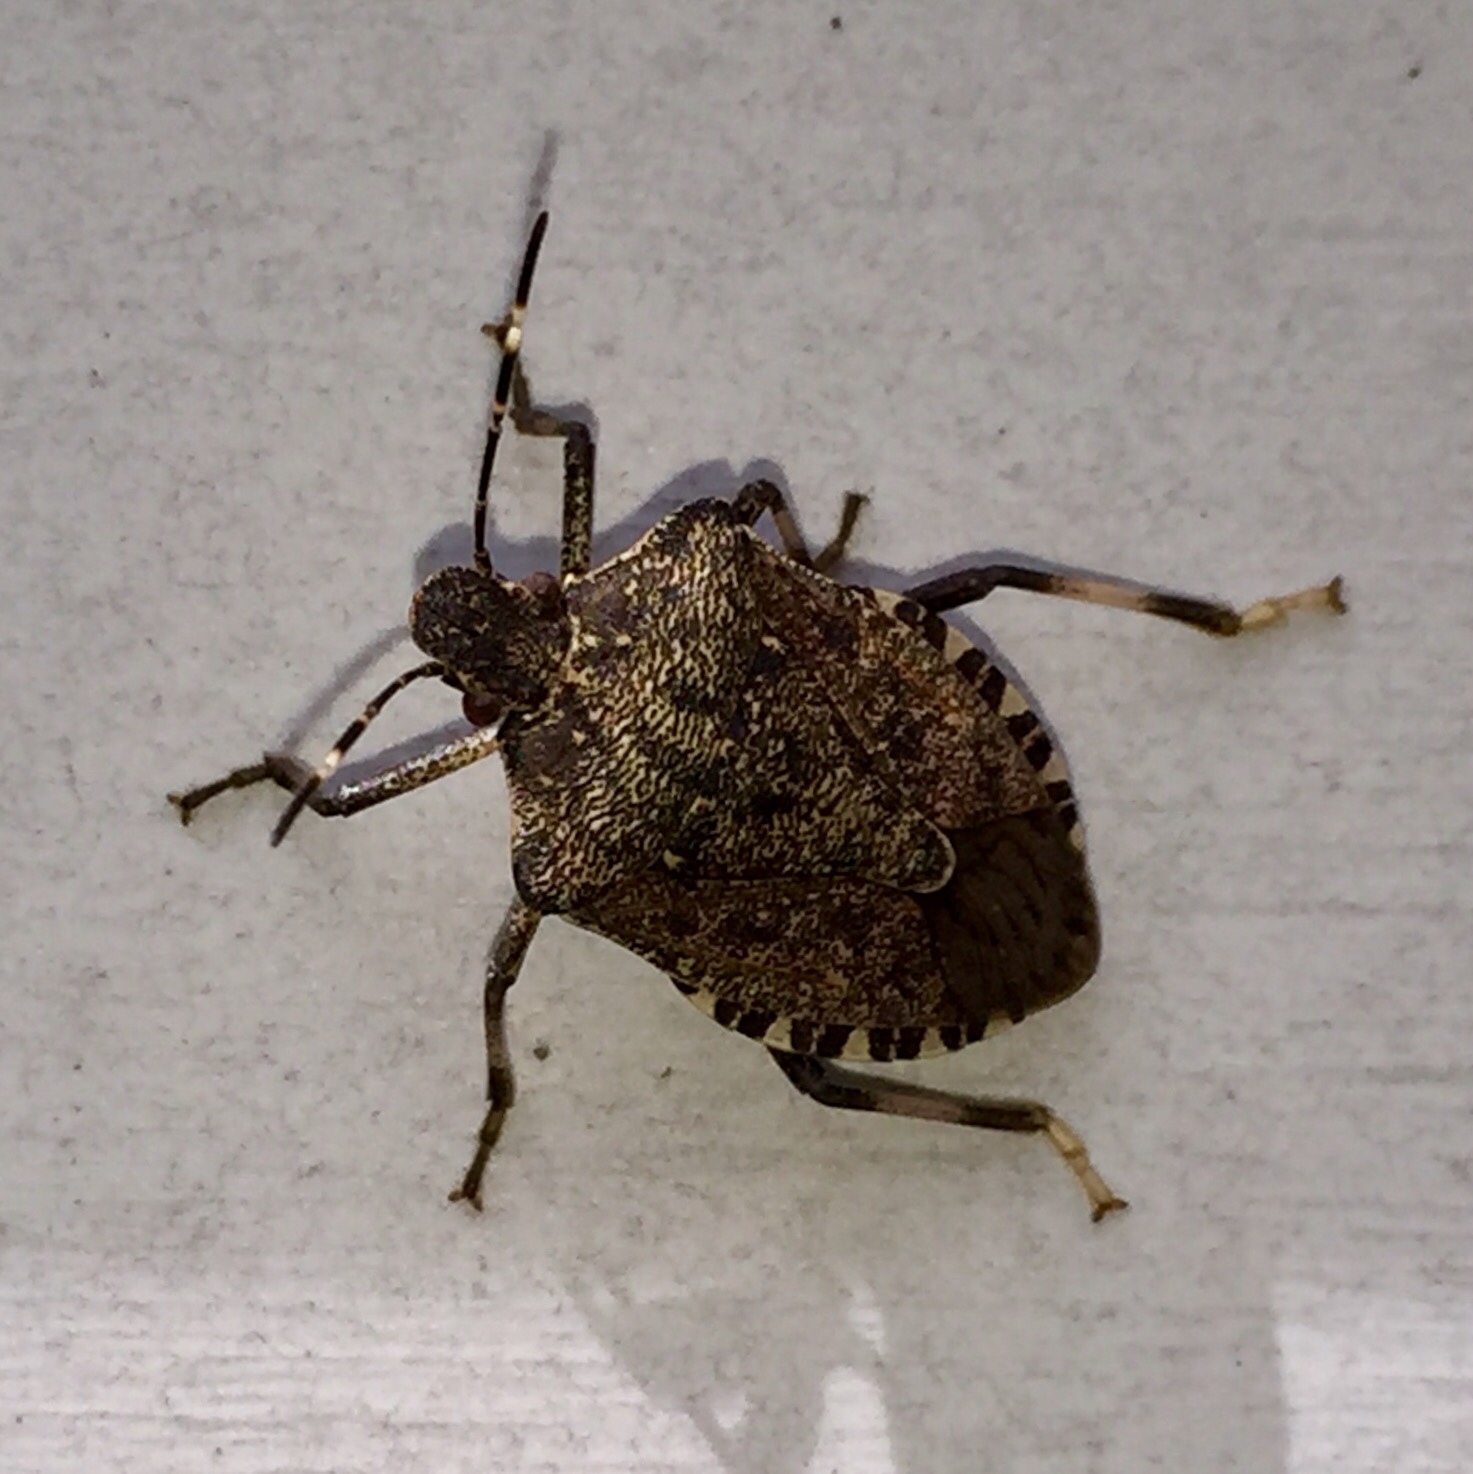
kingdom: Animalia
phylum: Arthropoda
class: Insecta
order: Hemiptera
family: Pentatomidae
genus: Halyomorpha
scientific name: Halyomorpha halys
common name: Brown marmorated stink bug
